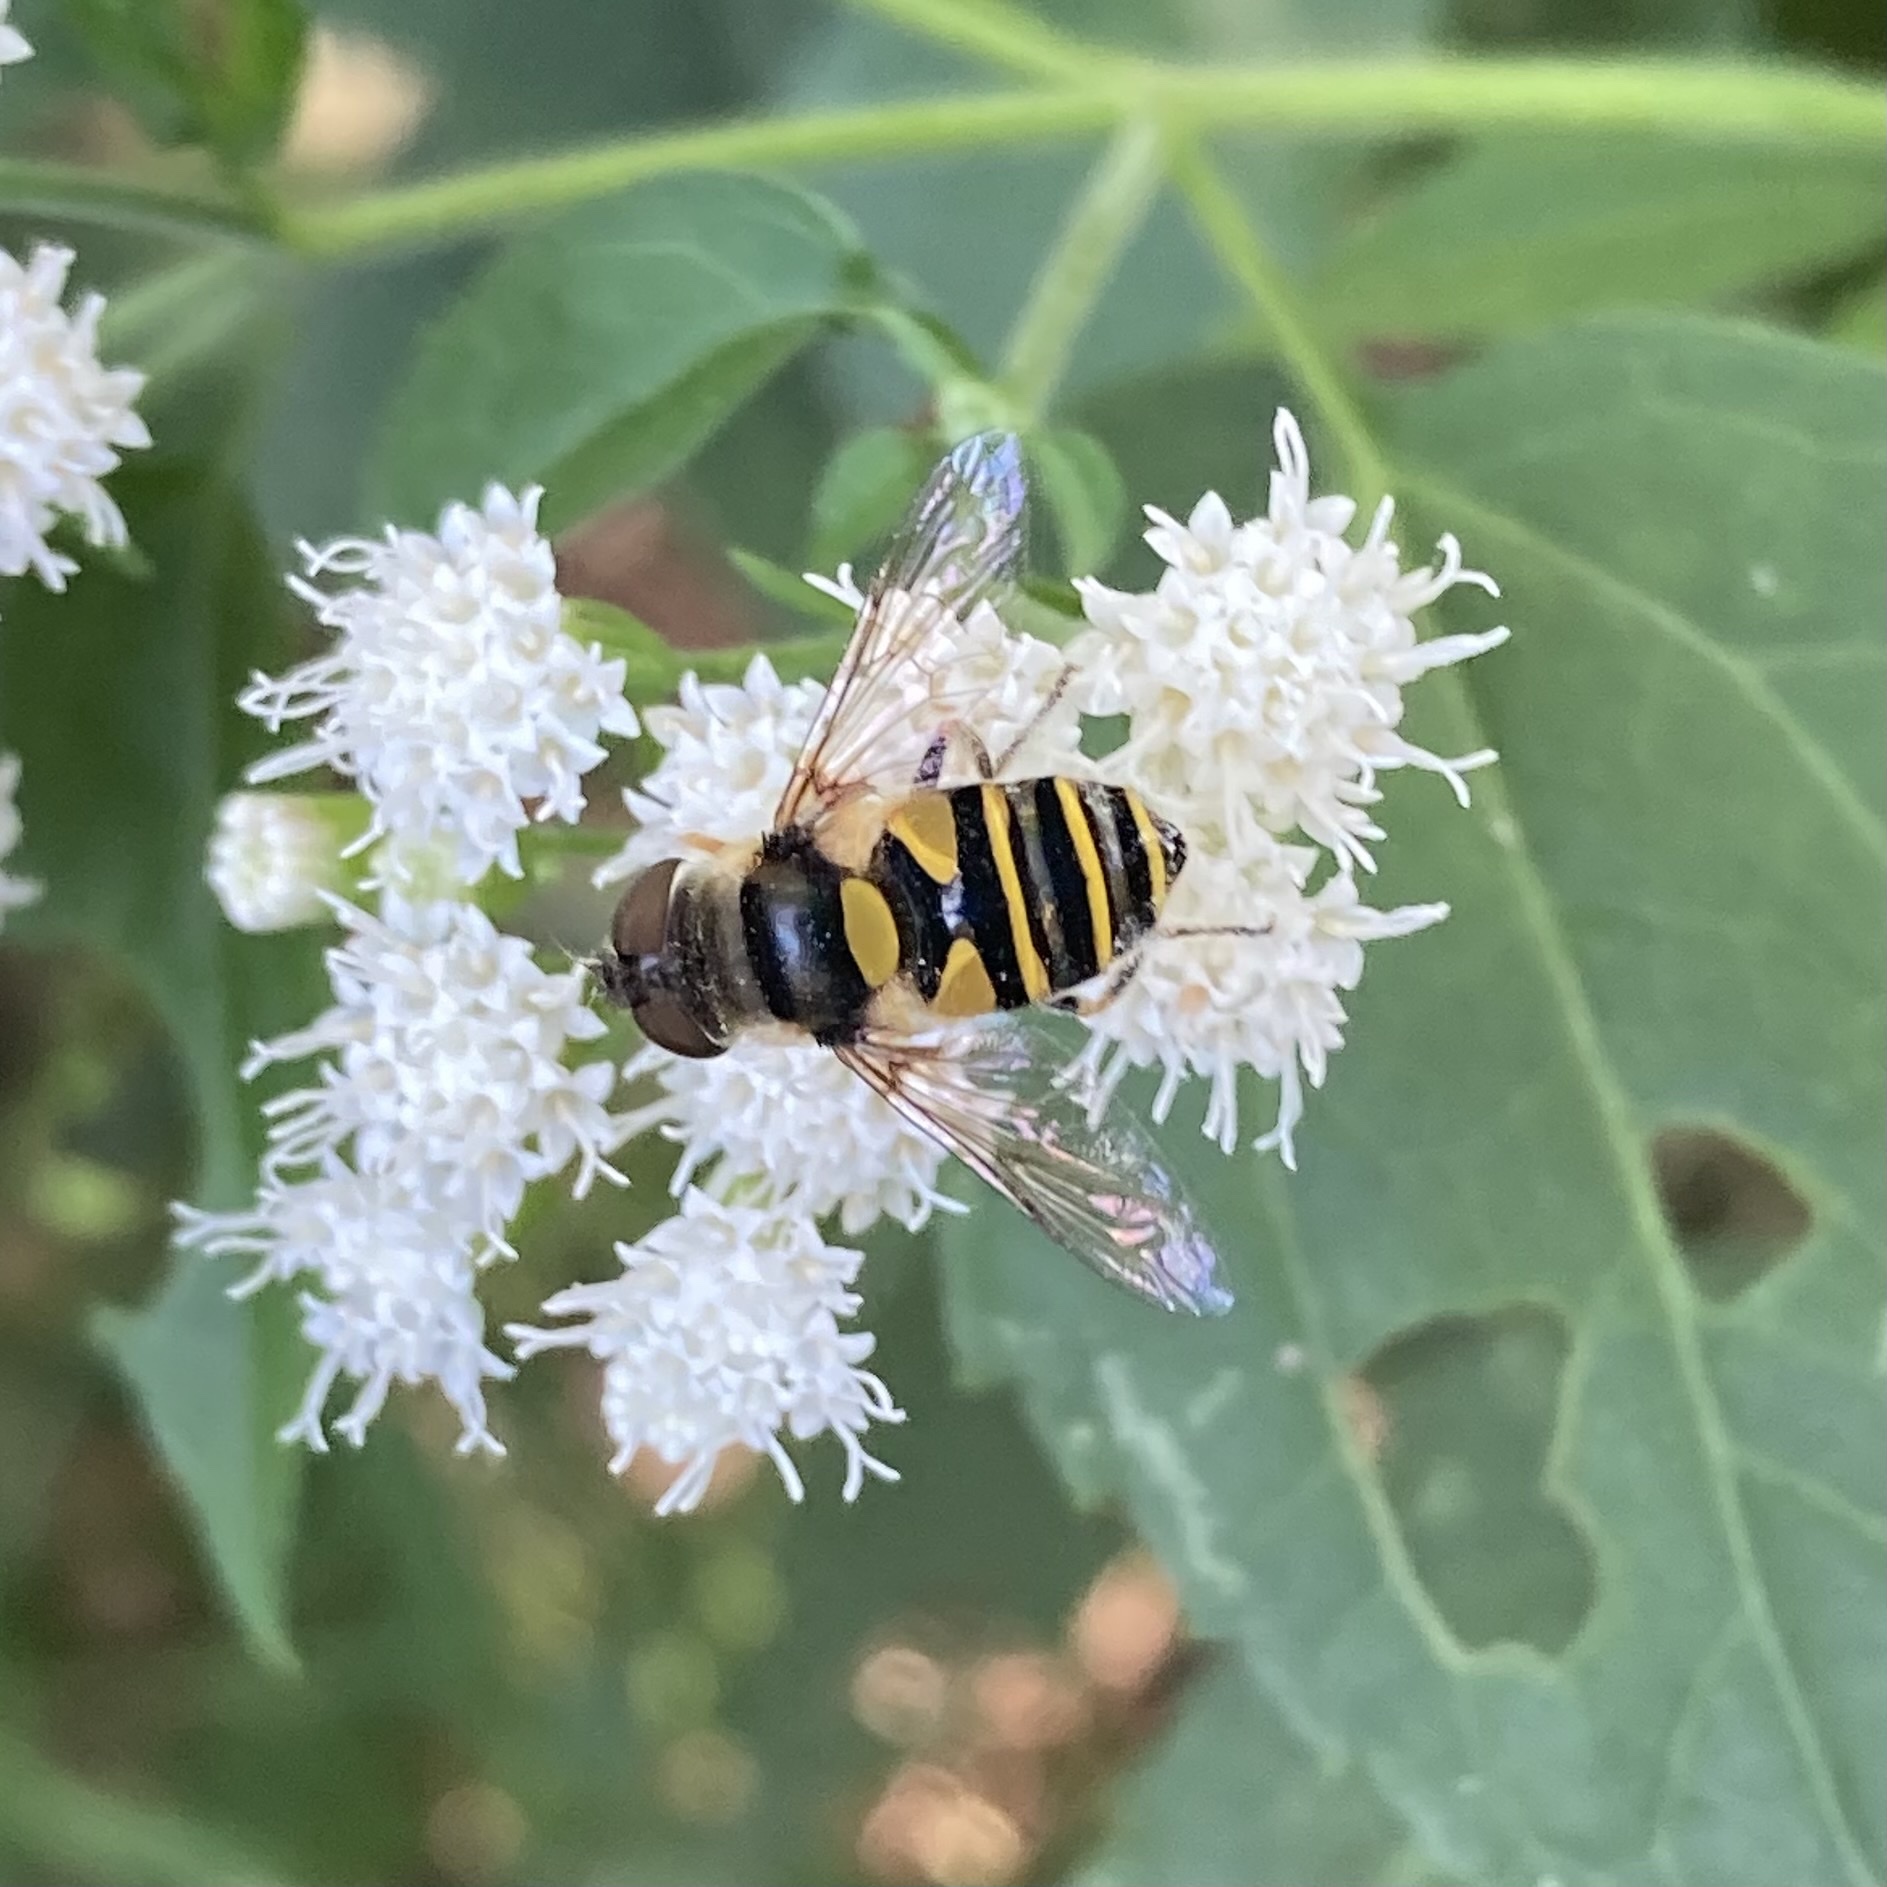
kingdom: Animalia
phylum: Arthropoda
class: Insecta
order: Diptera
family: Syrphidae
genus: Eristalis
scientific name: Eristalis transversa
